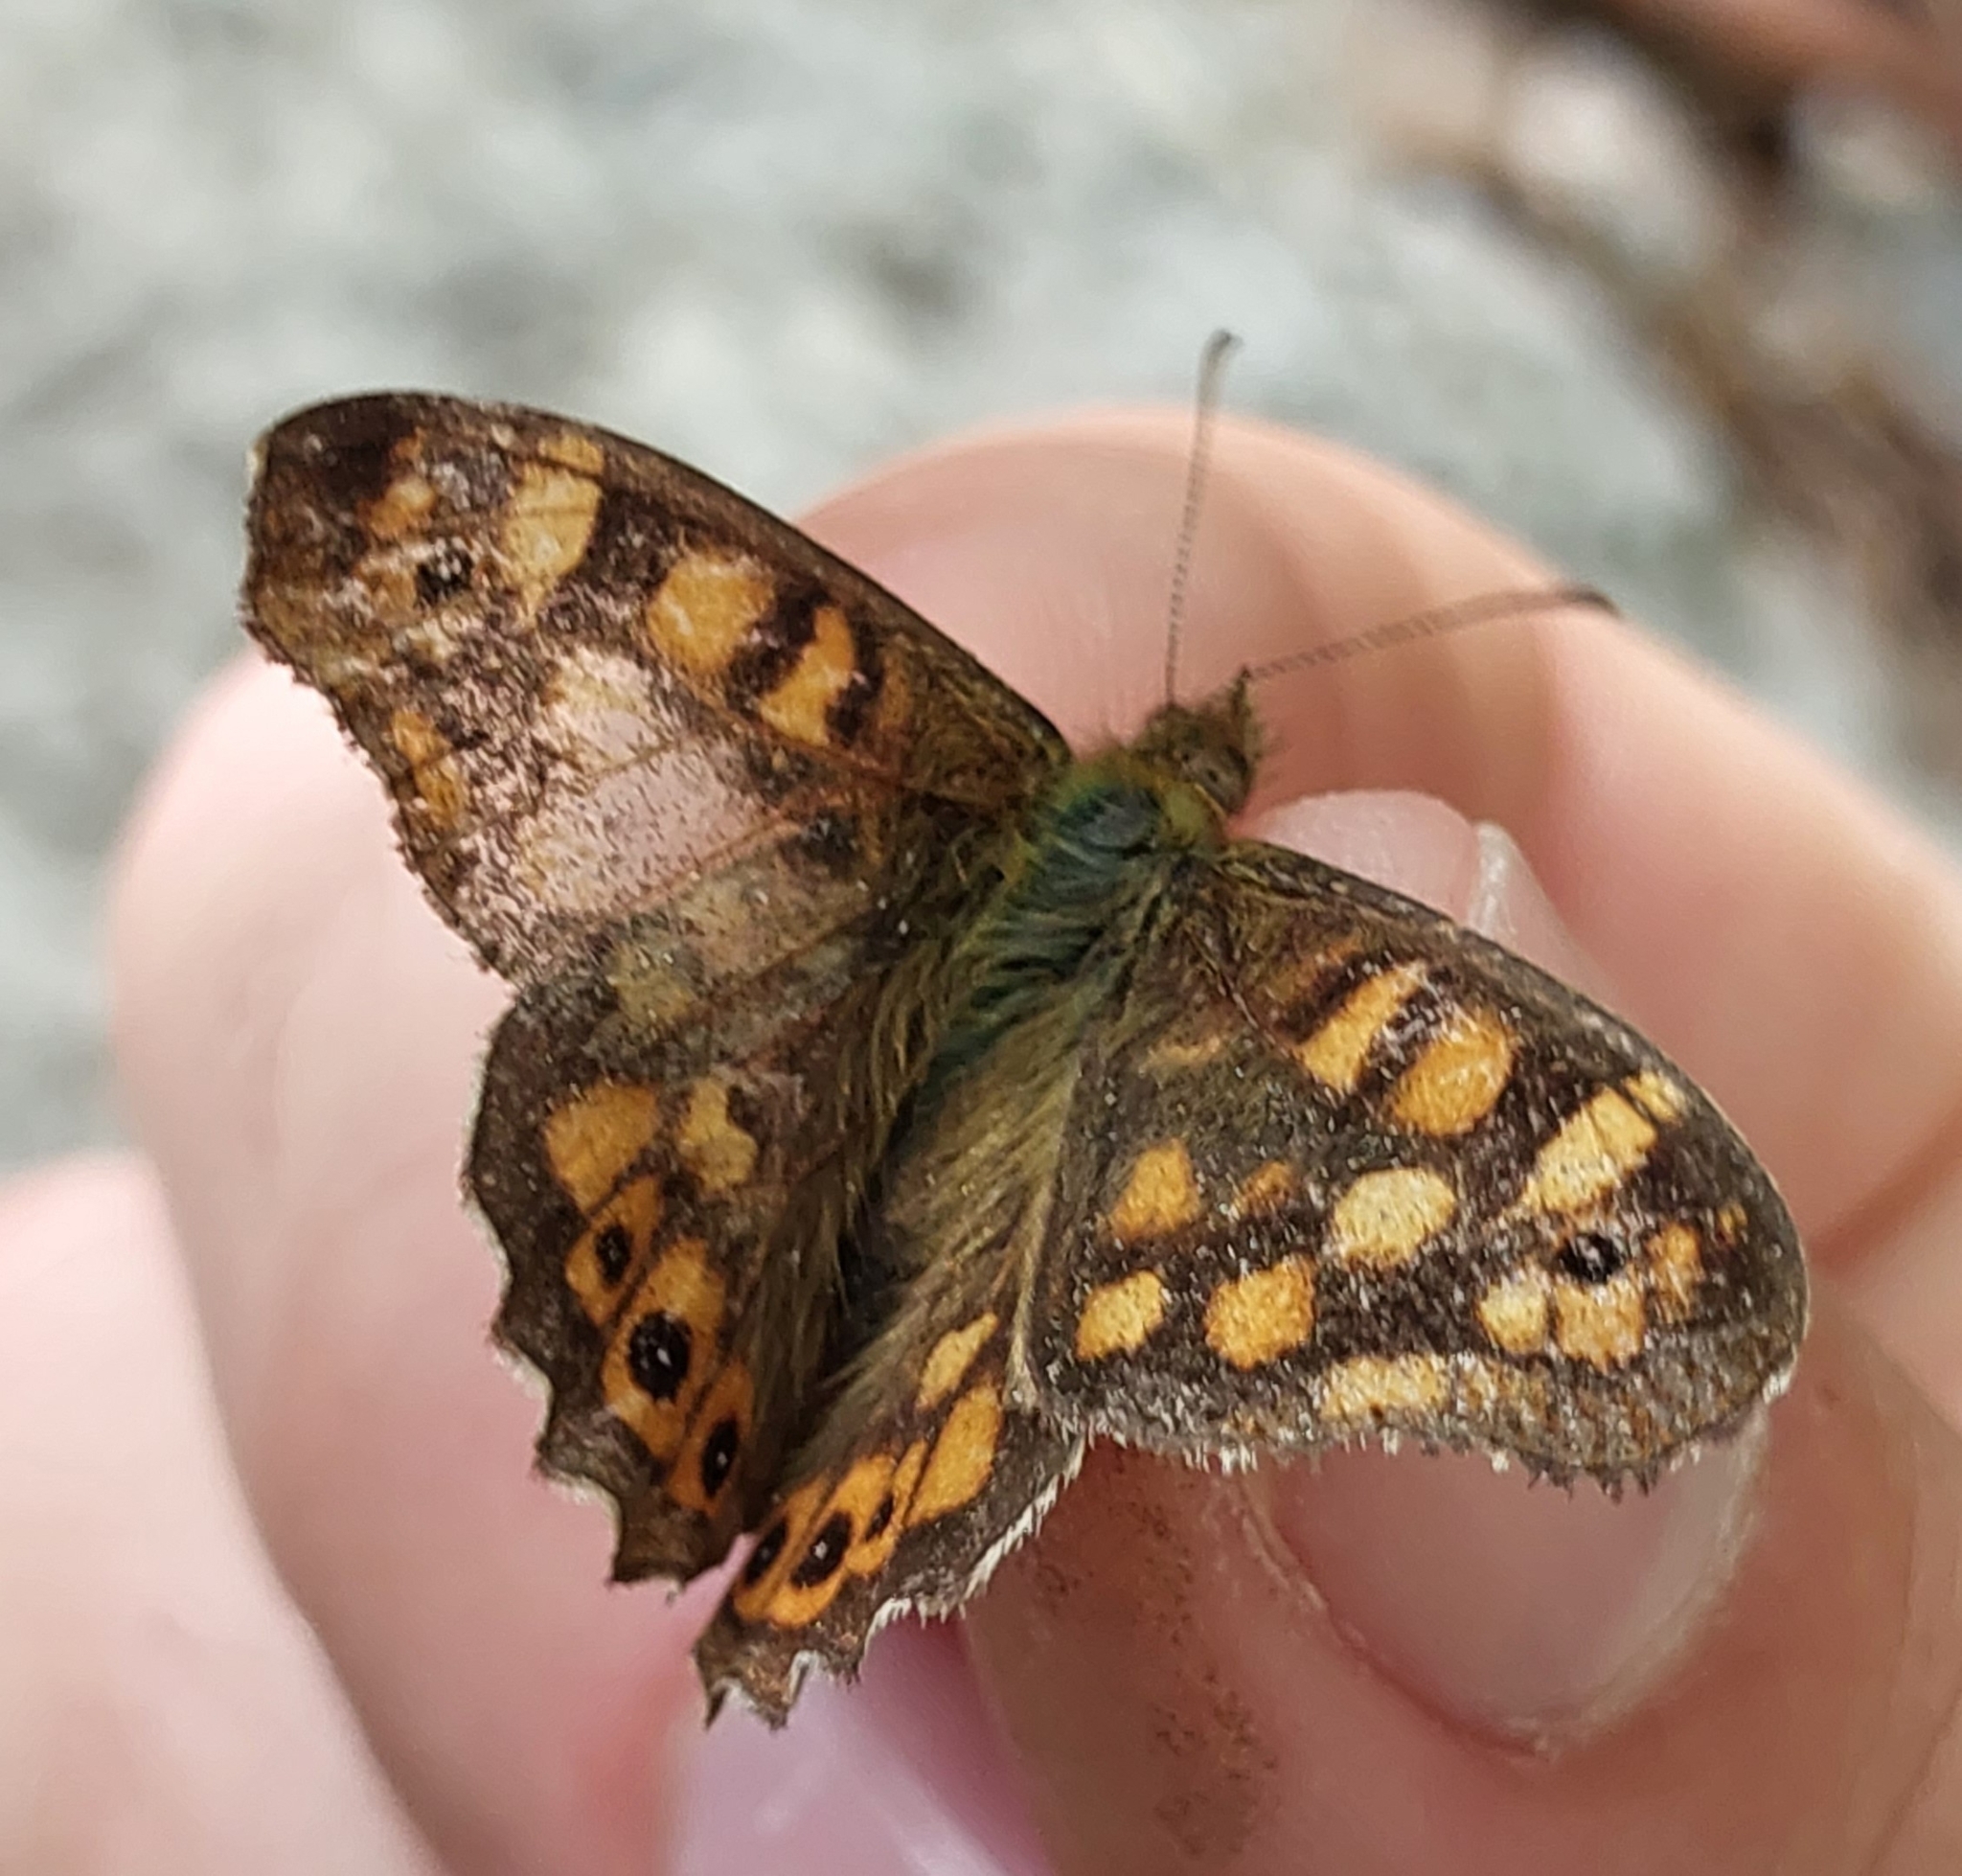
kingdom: Animalia
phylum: Arthropoda
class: Insecta
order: Lepidoptera
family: Nymphalidae
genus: Pararge
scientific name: Pararge aegeria
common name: Speckled wood
